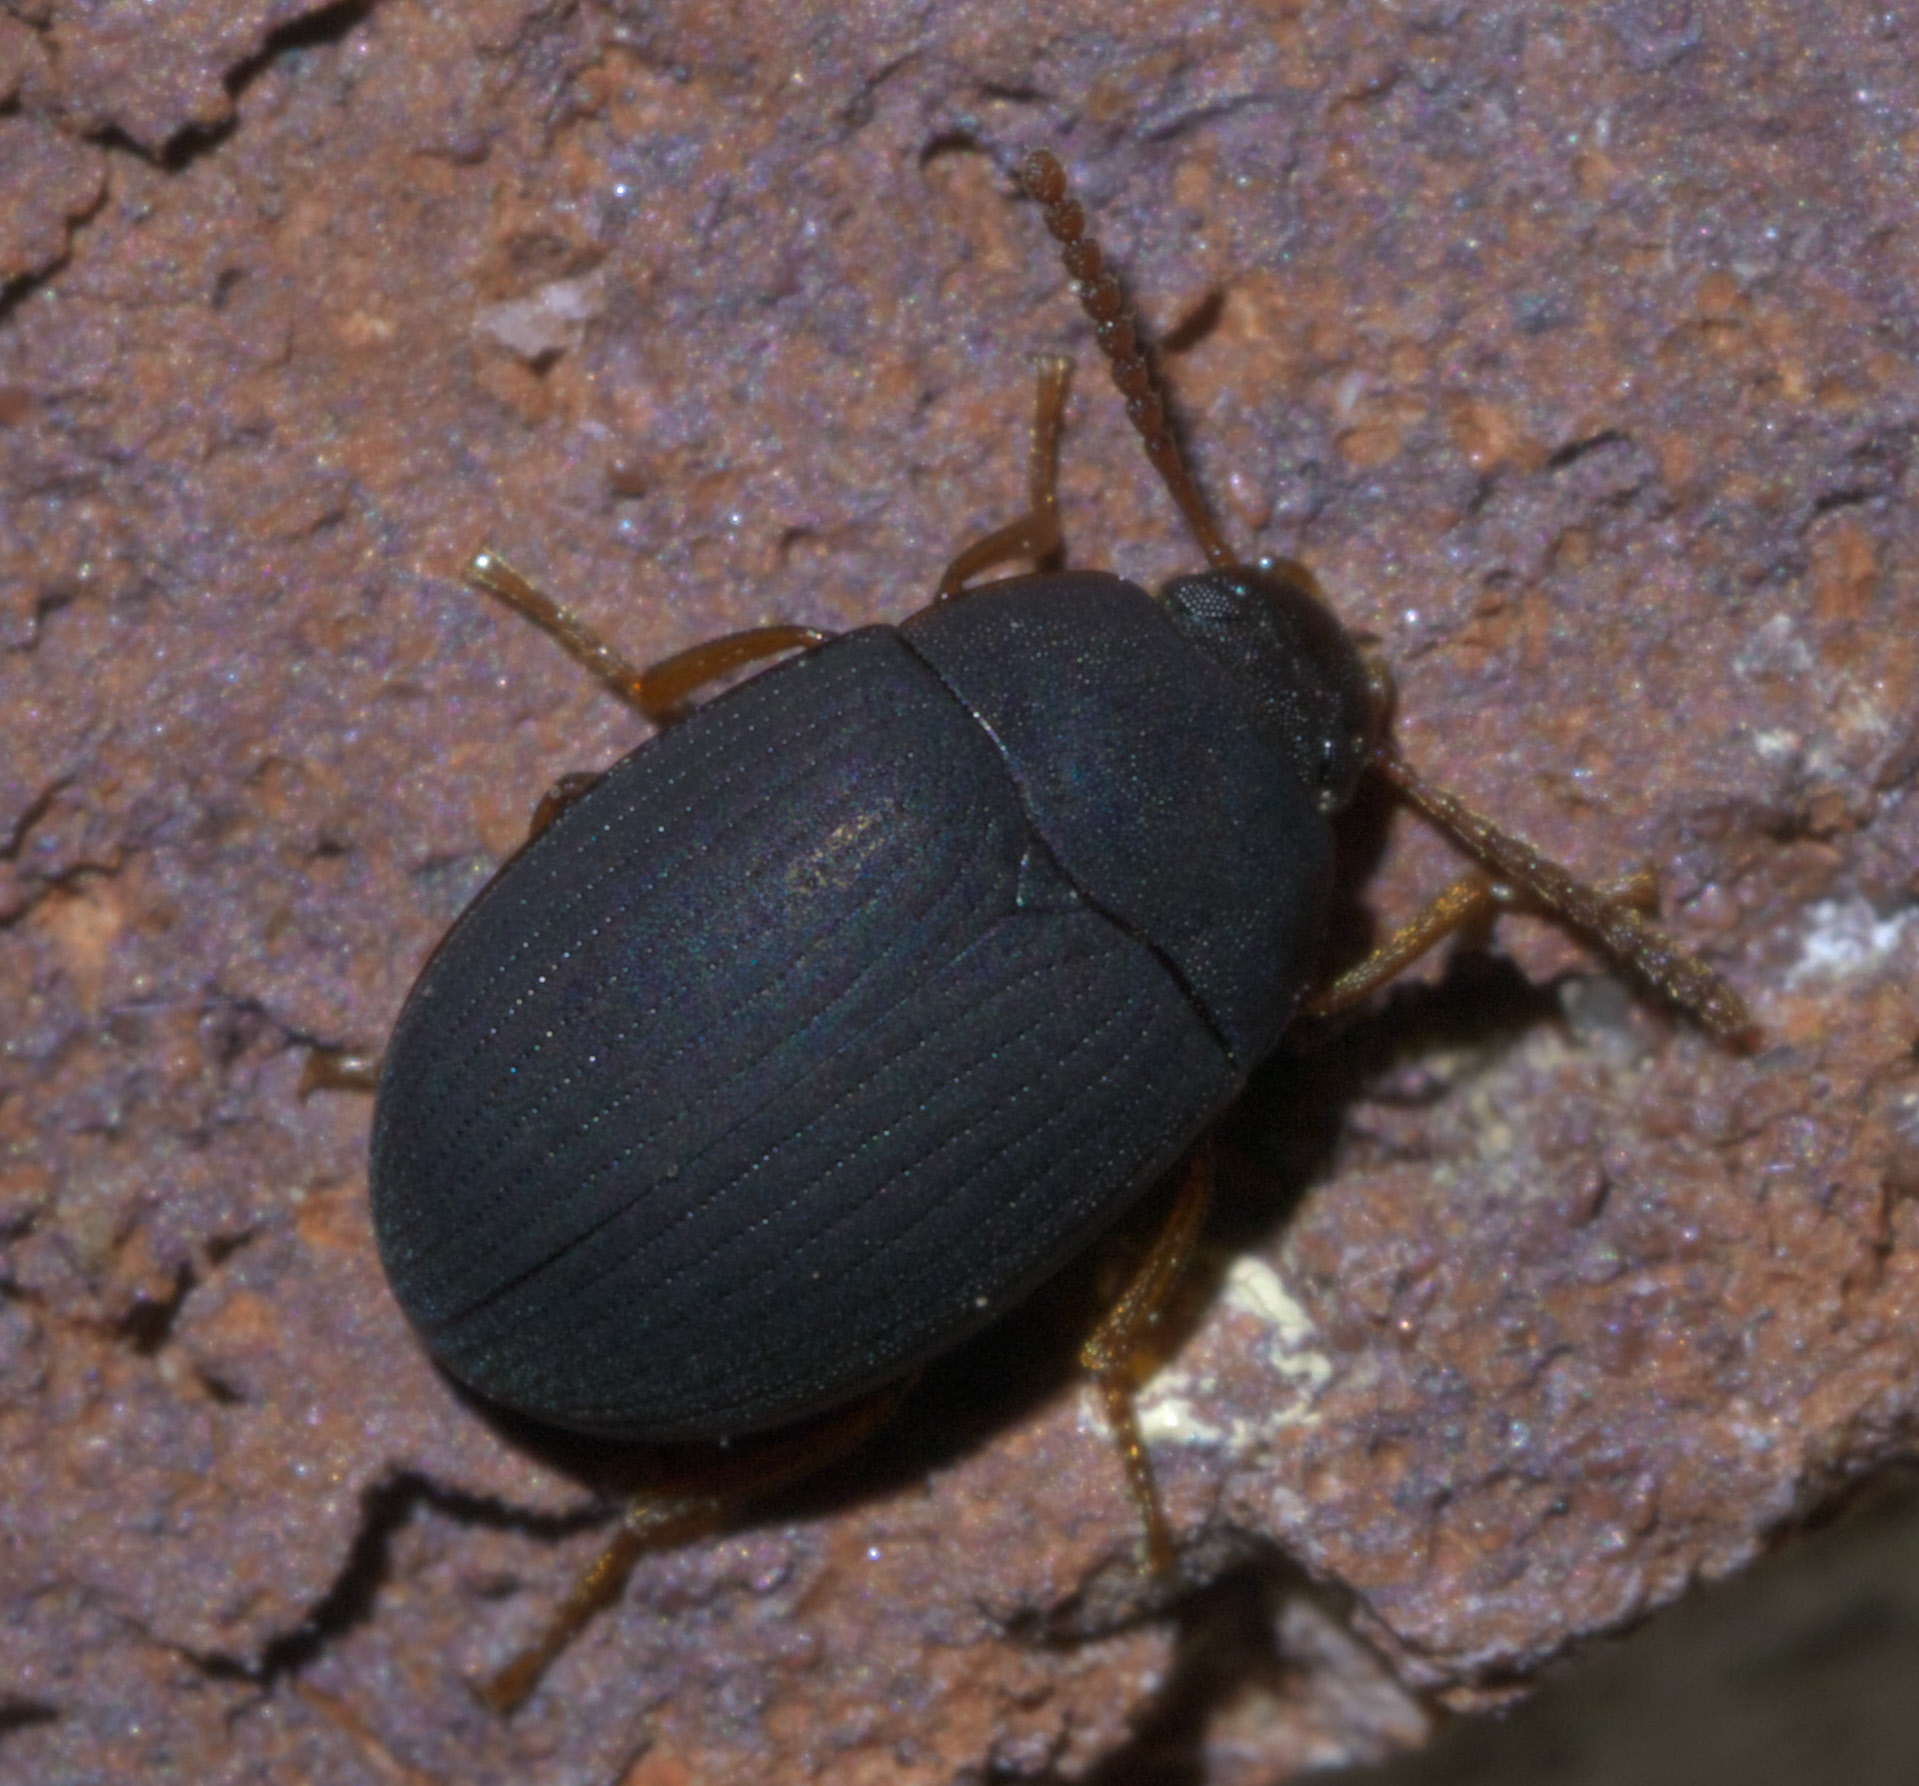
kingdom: Animalia
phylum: Arthropoda
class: Insecta
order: Coleoptera
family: Tenebrionidae
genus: Platydema
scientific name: Platydema ruficornis
